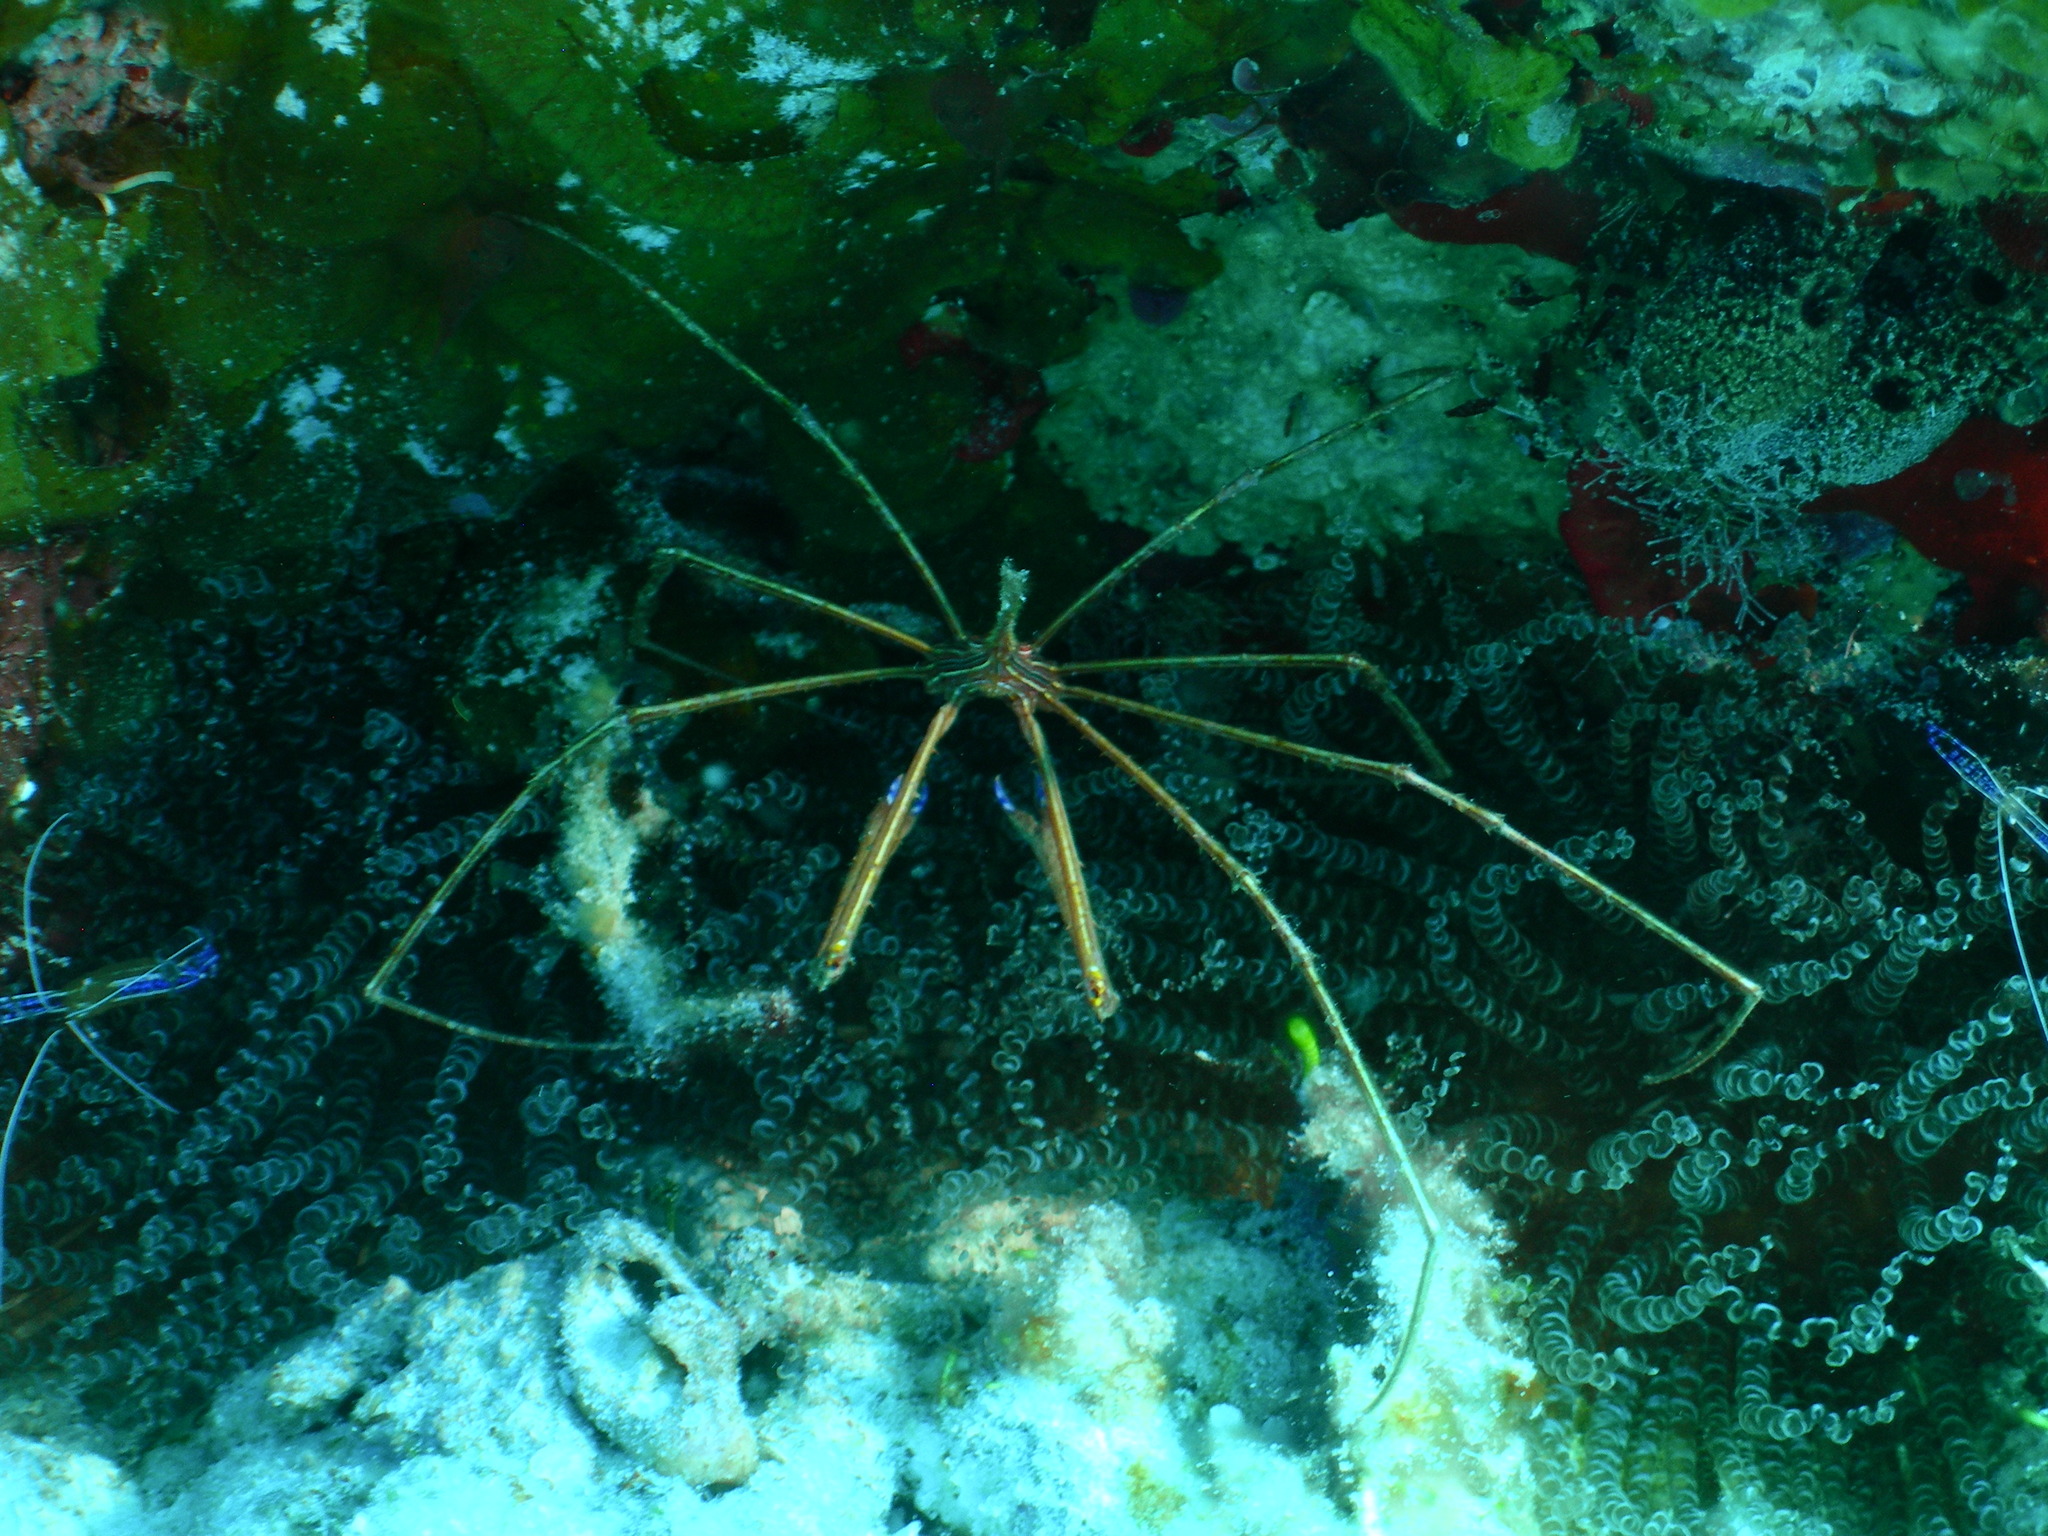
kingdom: Animalia
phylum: Arthropoda
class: Malacostraca
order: Decapoda
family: Inachoididae
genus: Stenorhynchus
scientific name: Stenorhynchus seticornis
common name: Arrow crab
